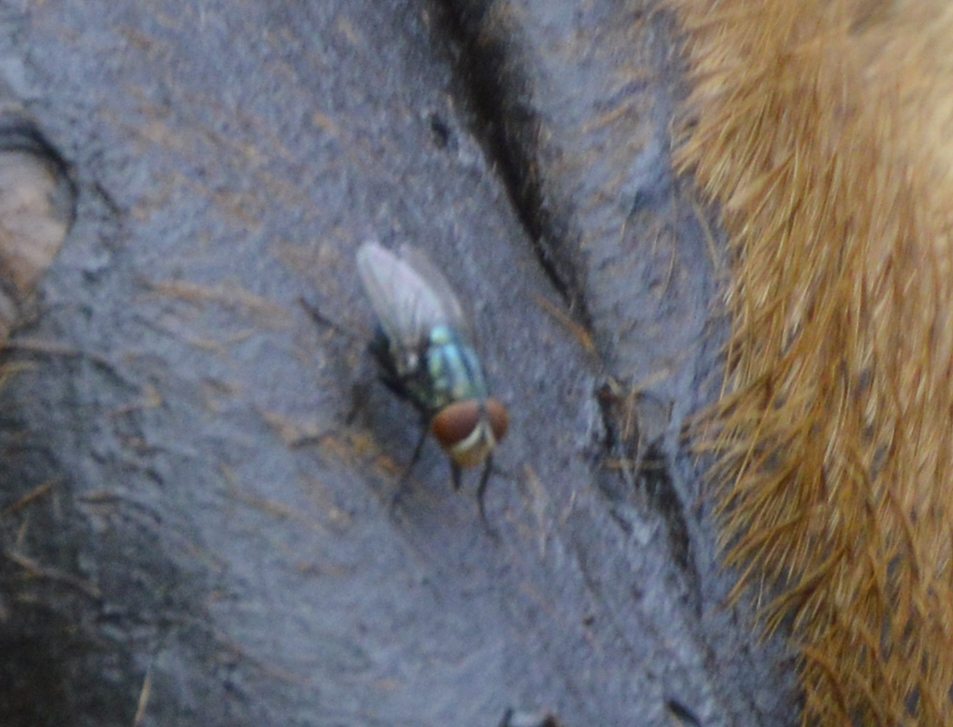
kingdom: Animalia
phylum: Arthropoda
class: Insecta
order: Diptera
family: Calliphoridae
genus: Cochliomyia
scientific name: Cochliomyia macellaria
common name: Secondary screwworm
